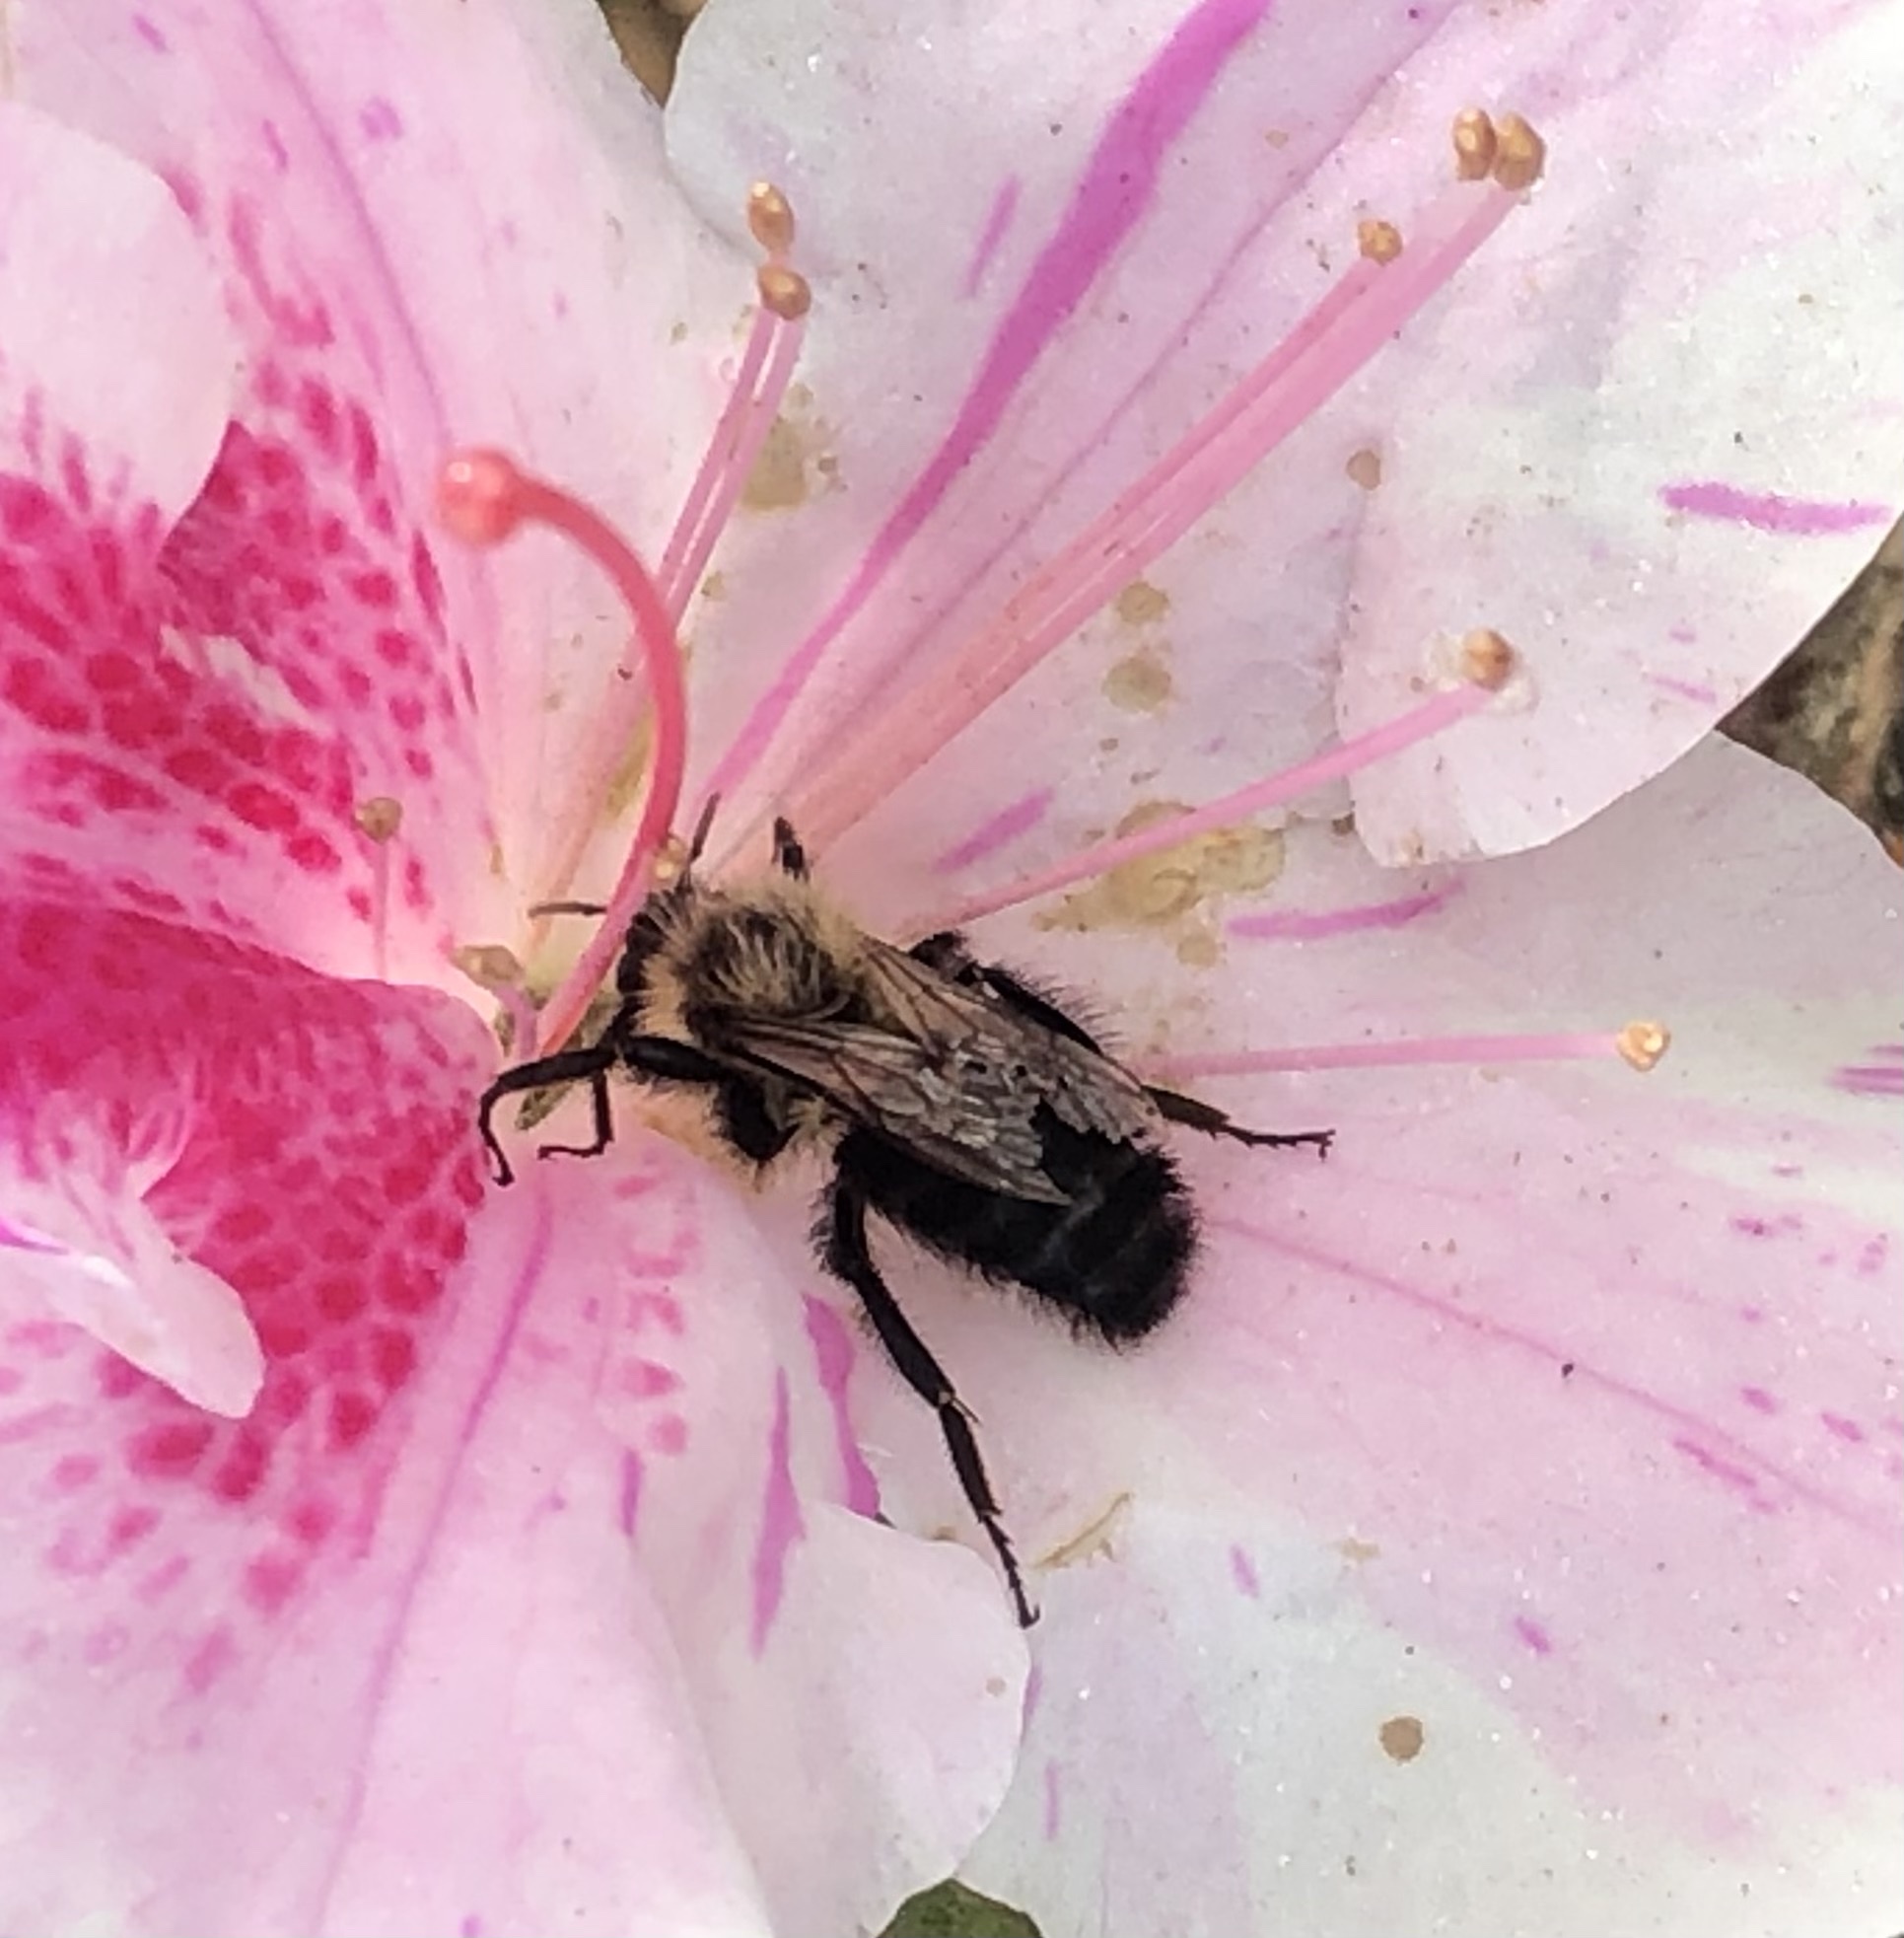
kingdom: Animalia
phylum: Arthropoda
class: Insecta
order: Hymenoptera
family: Apidae
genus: Bombus
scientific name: Bombus impatiens
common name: Common eastern bumble bee
